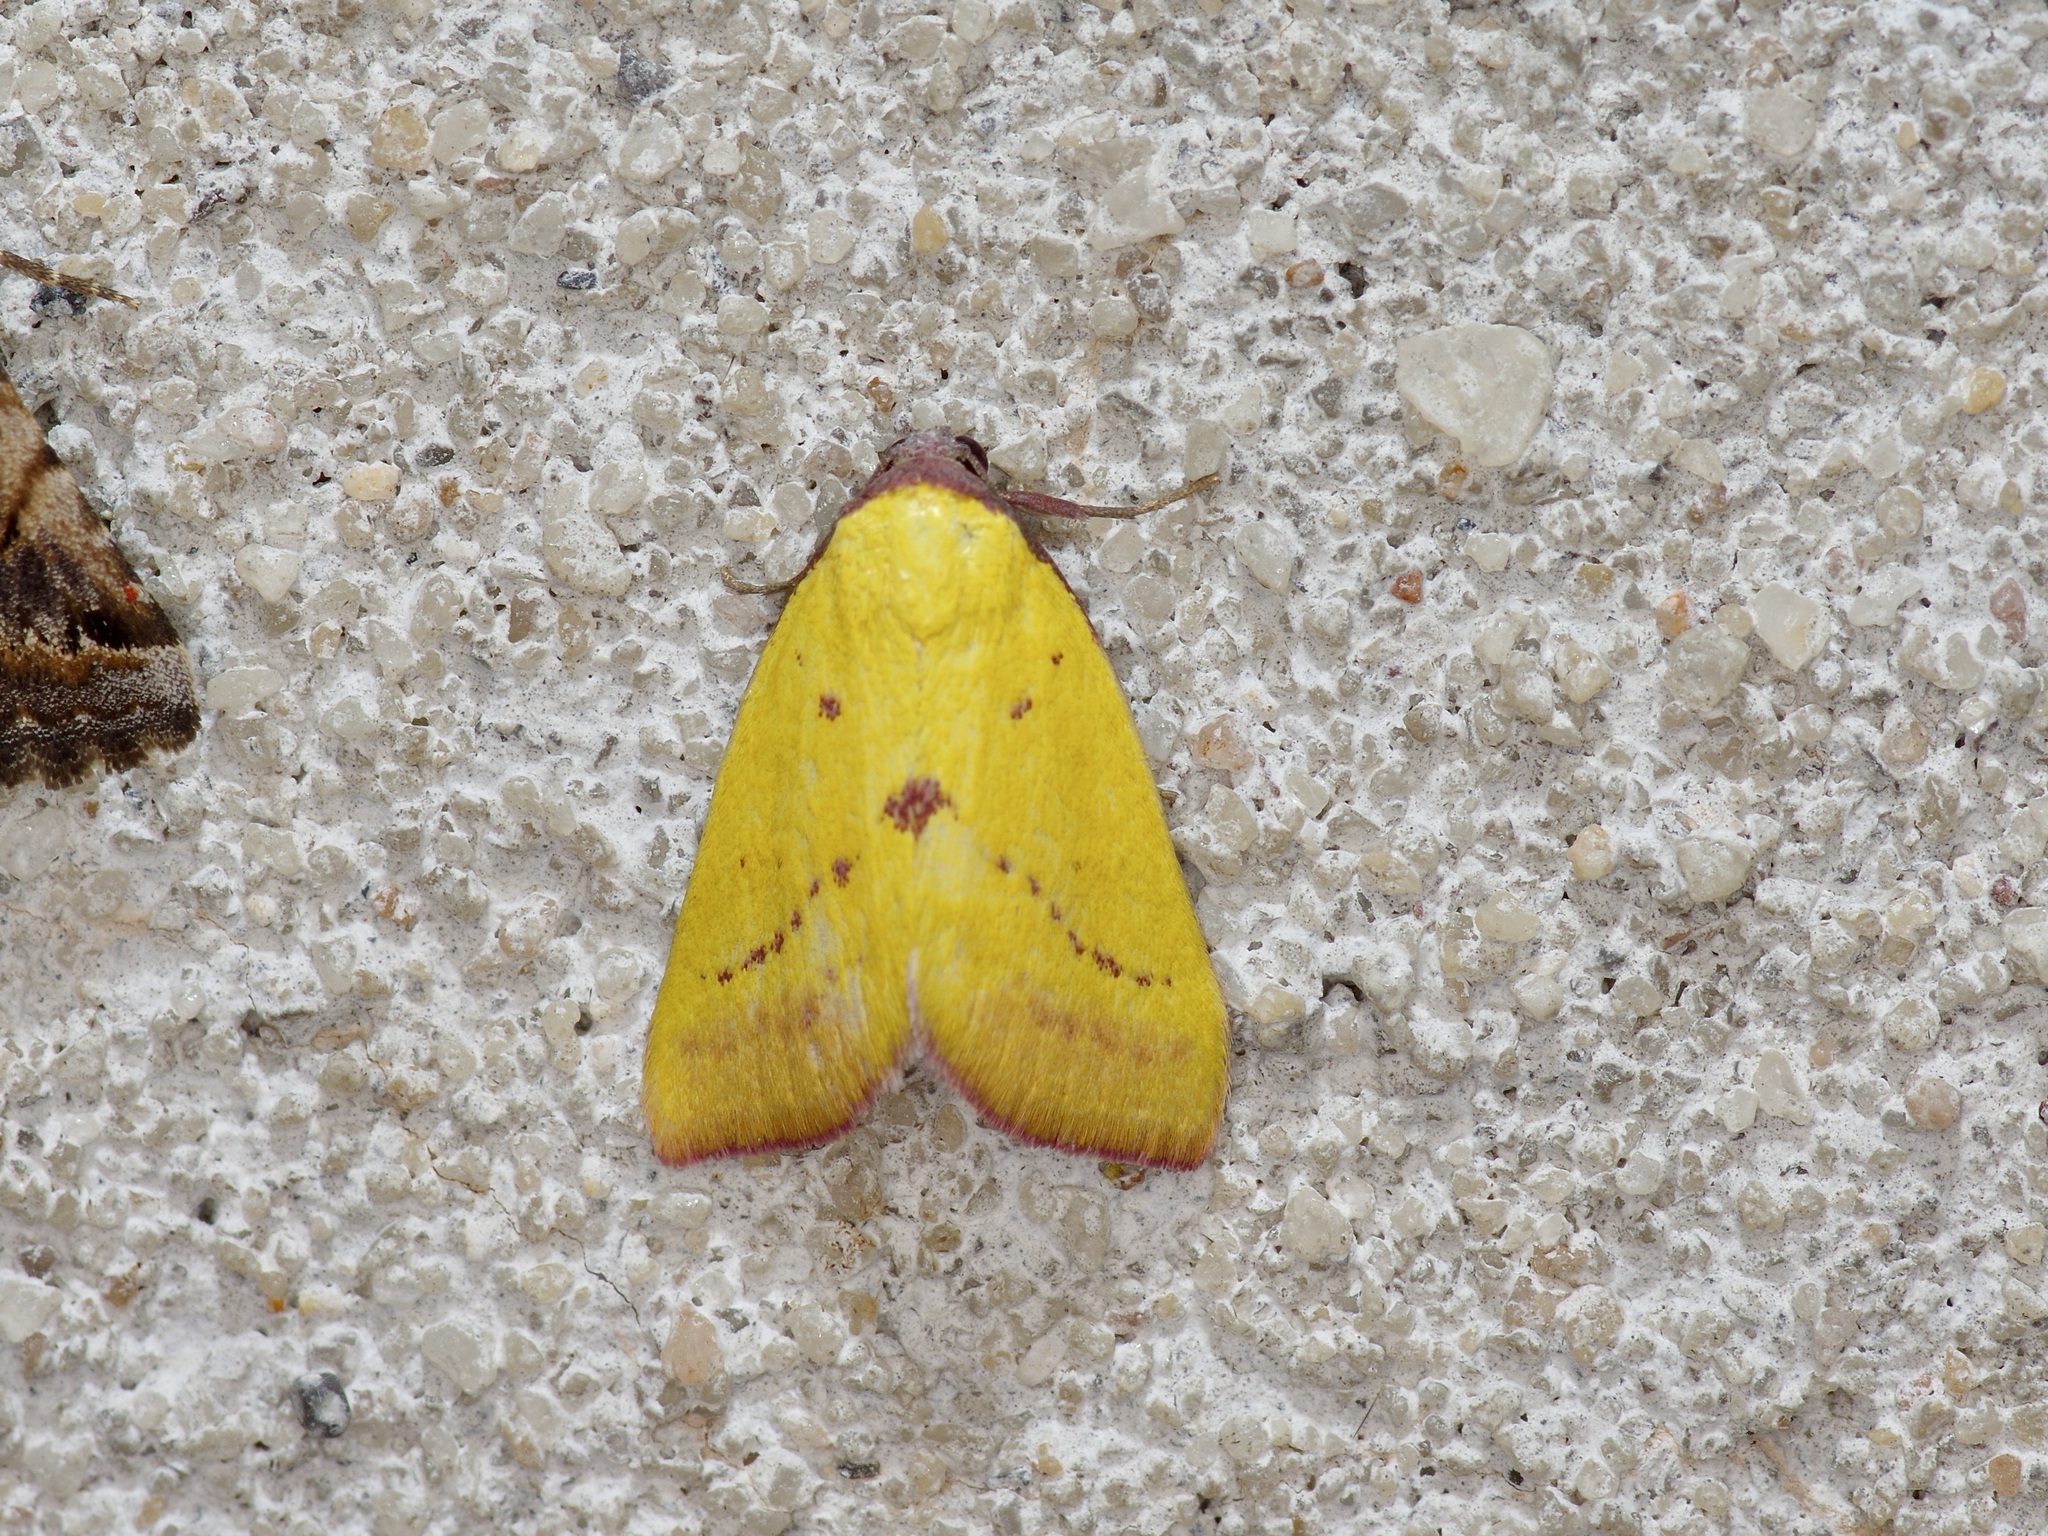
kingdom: Animalia
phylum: Arthropoda
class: Insecta
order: Lepidoptera
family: Erebidae
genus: Phytometra
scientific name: Phytometra orgiae
